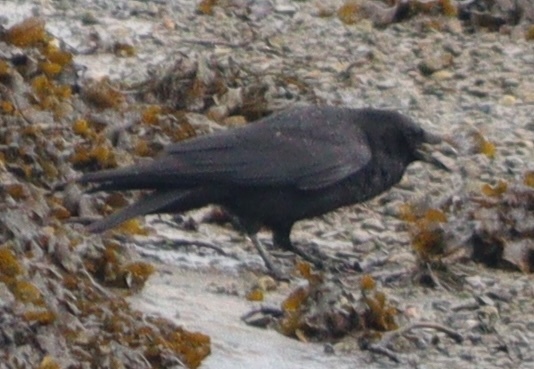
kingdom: Animalia
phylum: Chordata
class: Aves
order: Passeriformes
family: Corvidae
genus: Corvus
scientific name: Corvus corone
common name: Carrion crow
